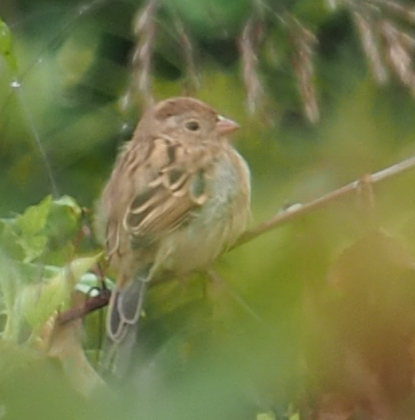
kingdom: Animalia
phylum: Chordata
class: Aves
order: Passeriformes
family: Passerellidae
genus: Spizella
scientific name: Spizella pusilla
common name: Field sparrow
